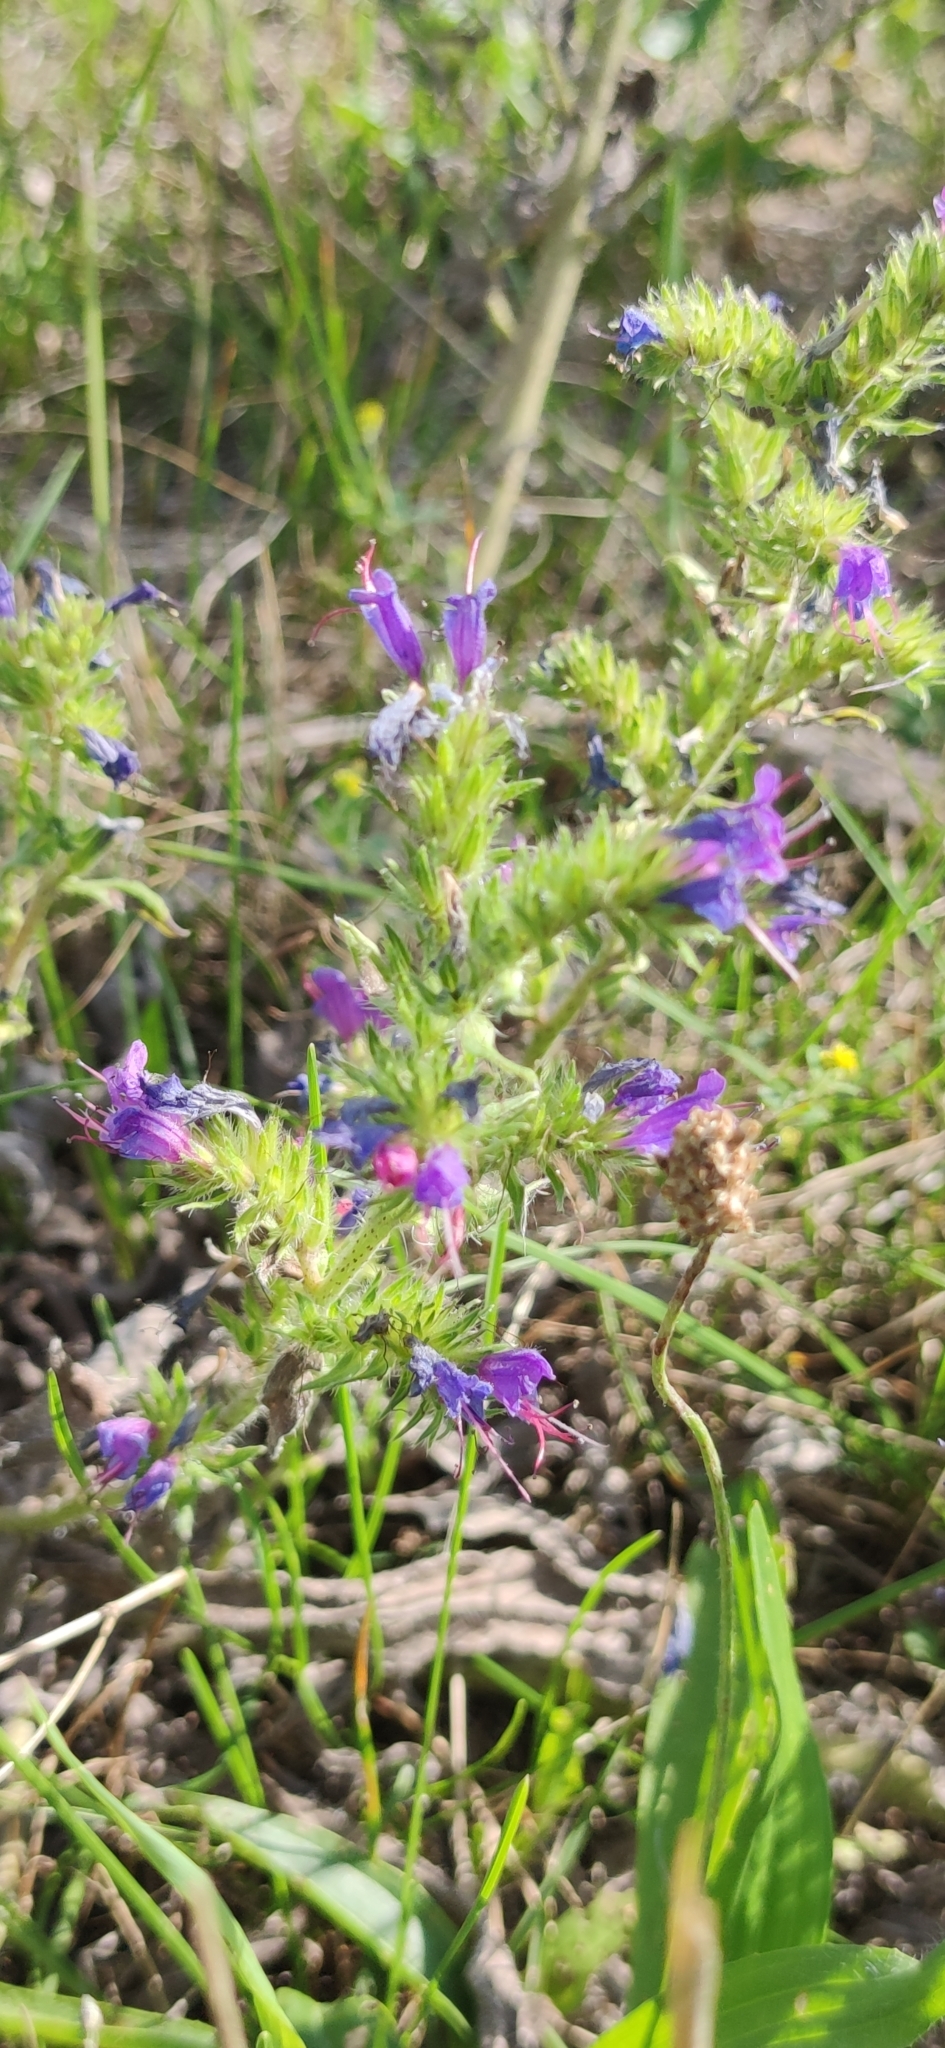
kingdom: Plantae
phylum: Tracheophyta
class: Magnoliopsida
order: Boraginales
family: Boraginaceae
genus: Echium
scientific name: Echium vulgare
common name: Common viper's bugloss
